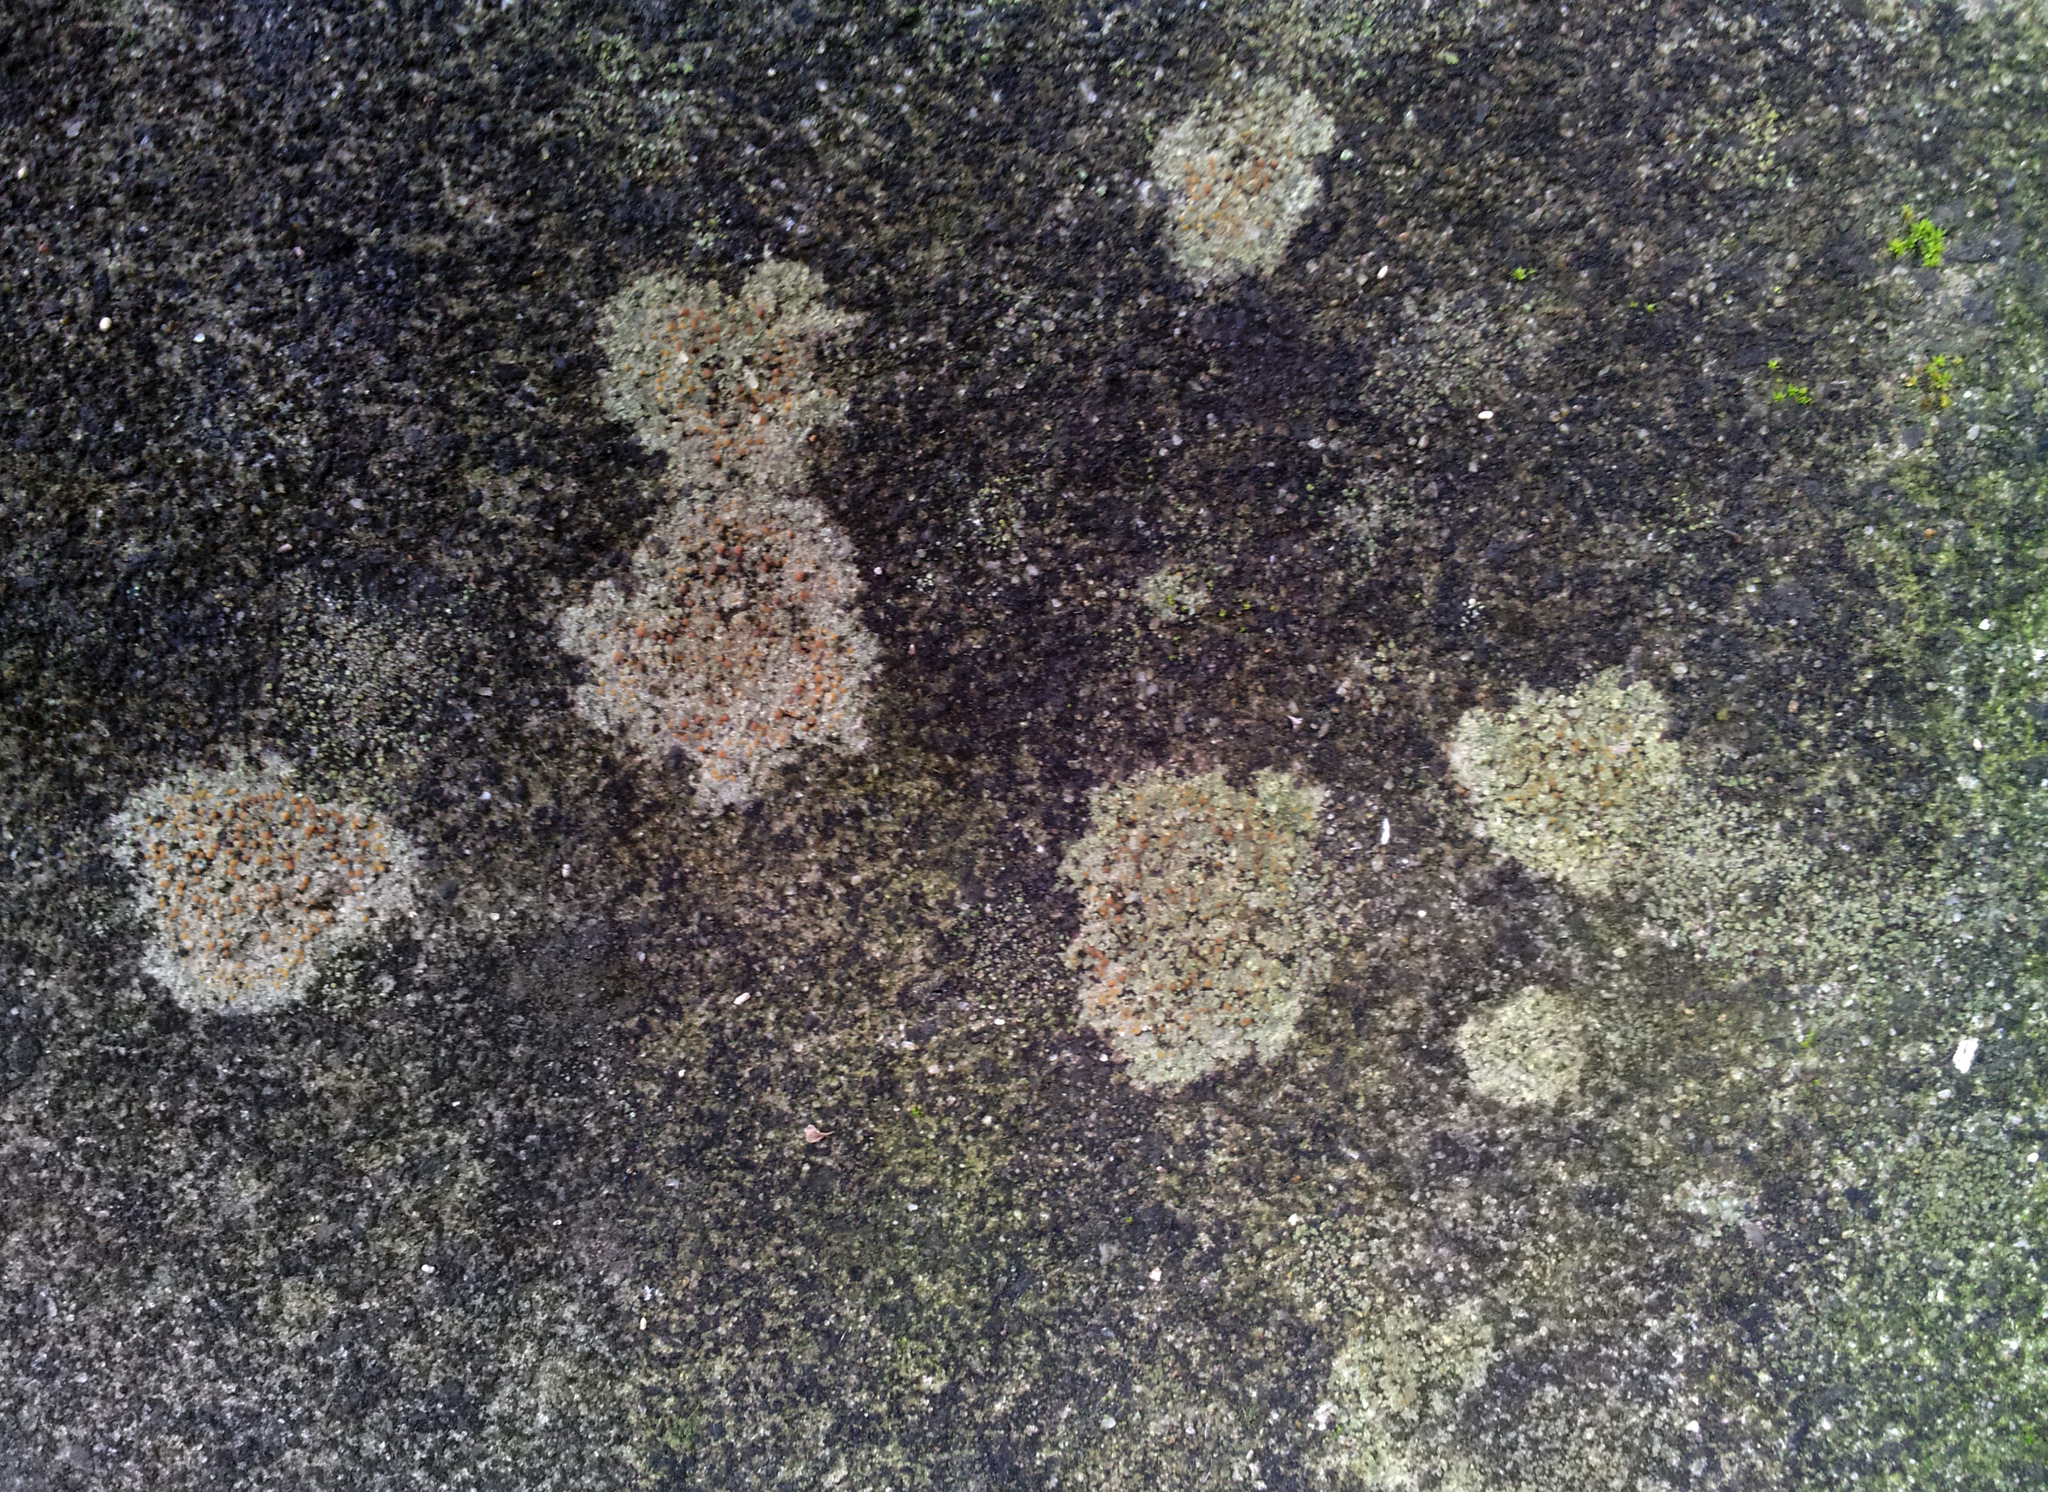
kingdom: Fungi
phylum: Ascomycota
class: Lecanoromycetes
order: Lecanorales
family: Psoraceae
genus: Protoblastenia
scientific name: Protoblastenia rupestris
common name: Chewing gum lichen
